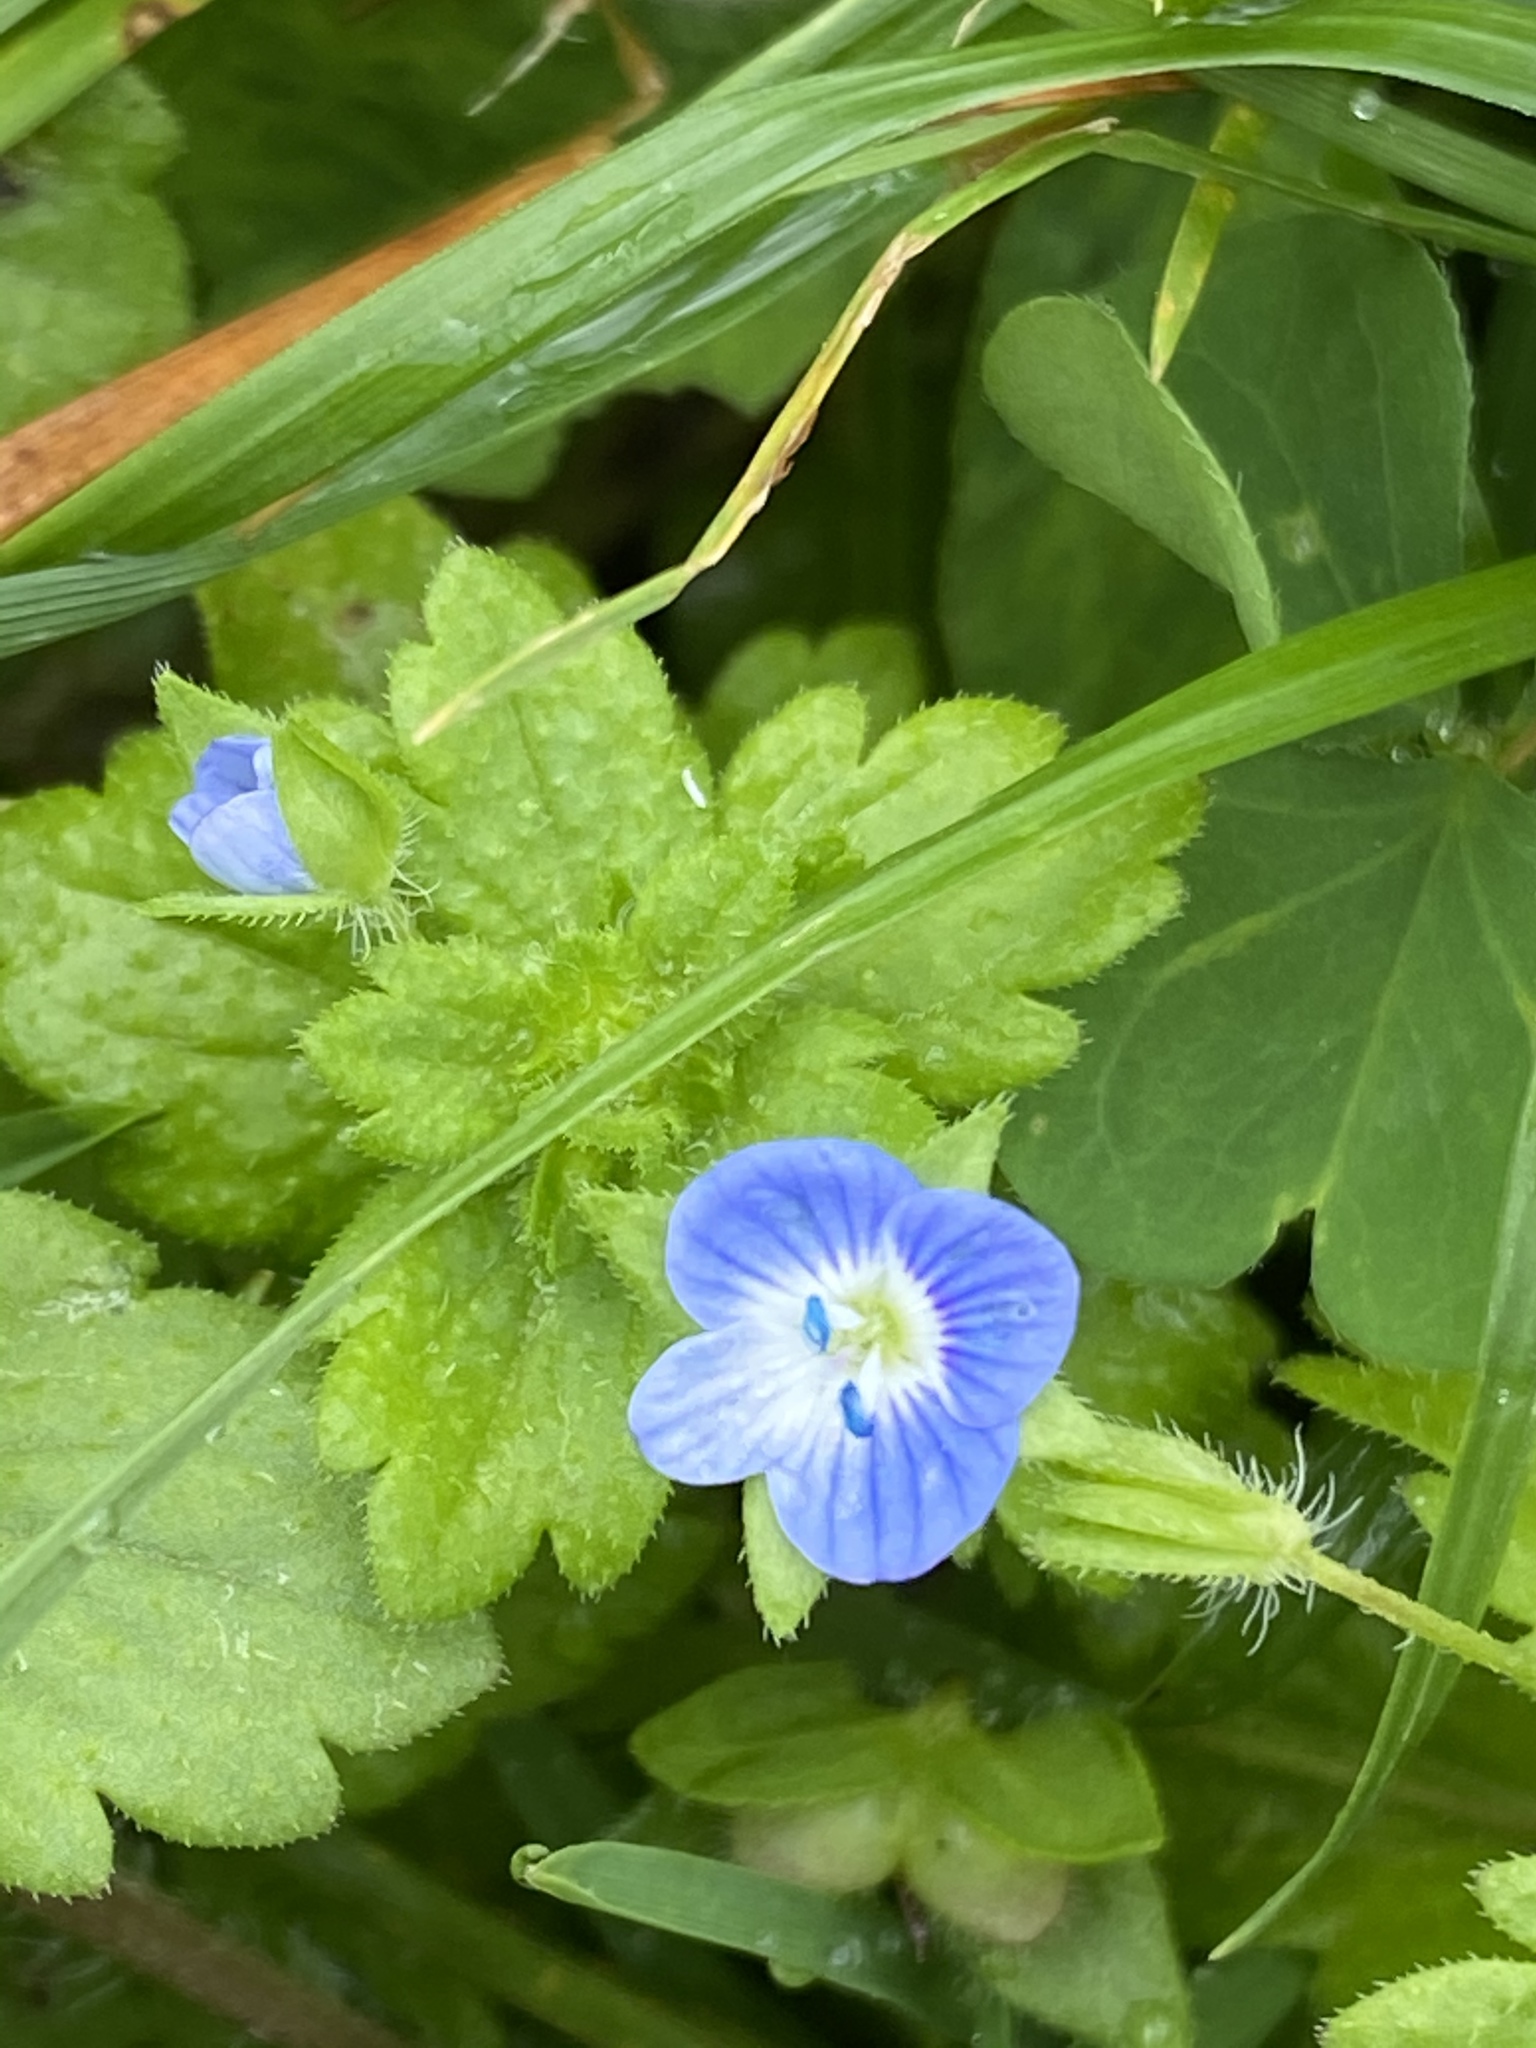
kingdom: Plantae
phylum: Tracheophyta
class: Magnoliopsida
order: Lamiales
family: Plantaginaceae
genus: Veronica
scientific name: Veronica persica
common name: Common field-speedwell
